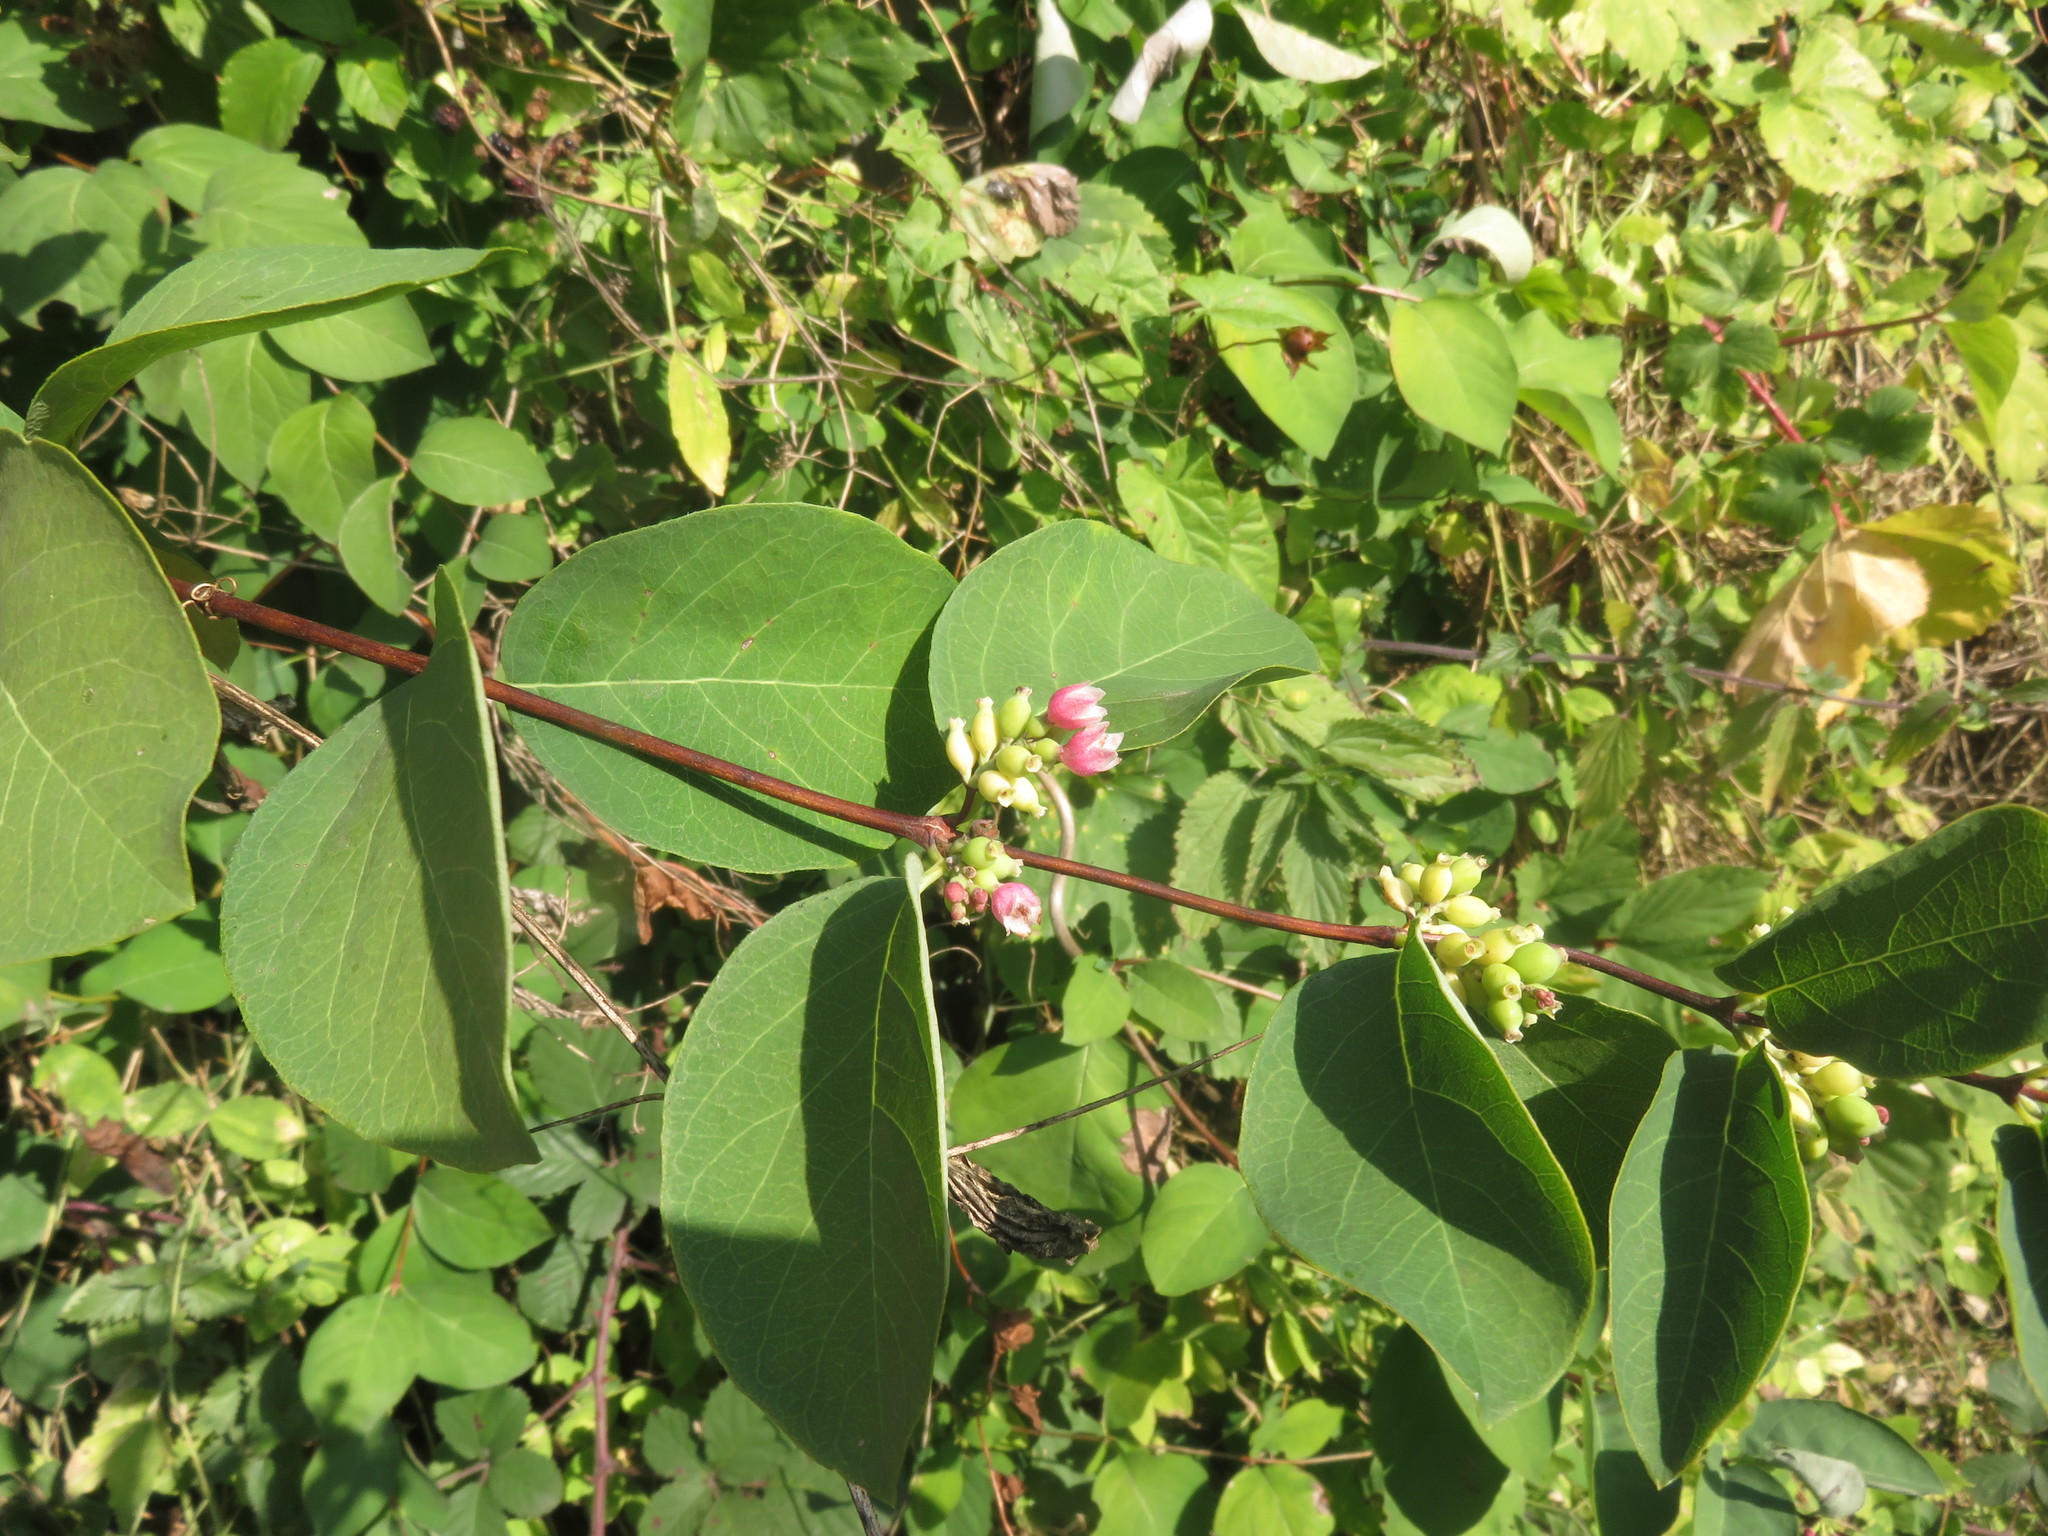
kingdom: Plantae
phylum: Tracheophyta
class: Magnoliopsida
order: Dipsacales
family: Caprifoliaceae
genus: Symphoricarpos
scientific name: Symphoricarpos albus
